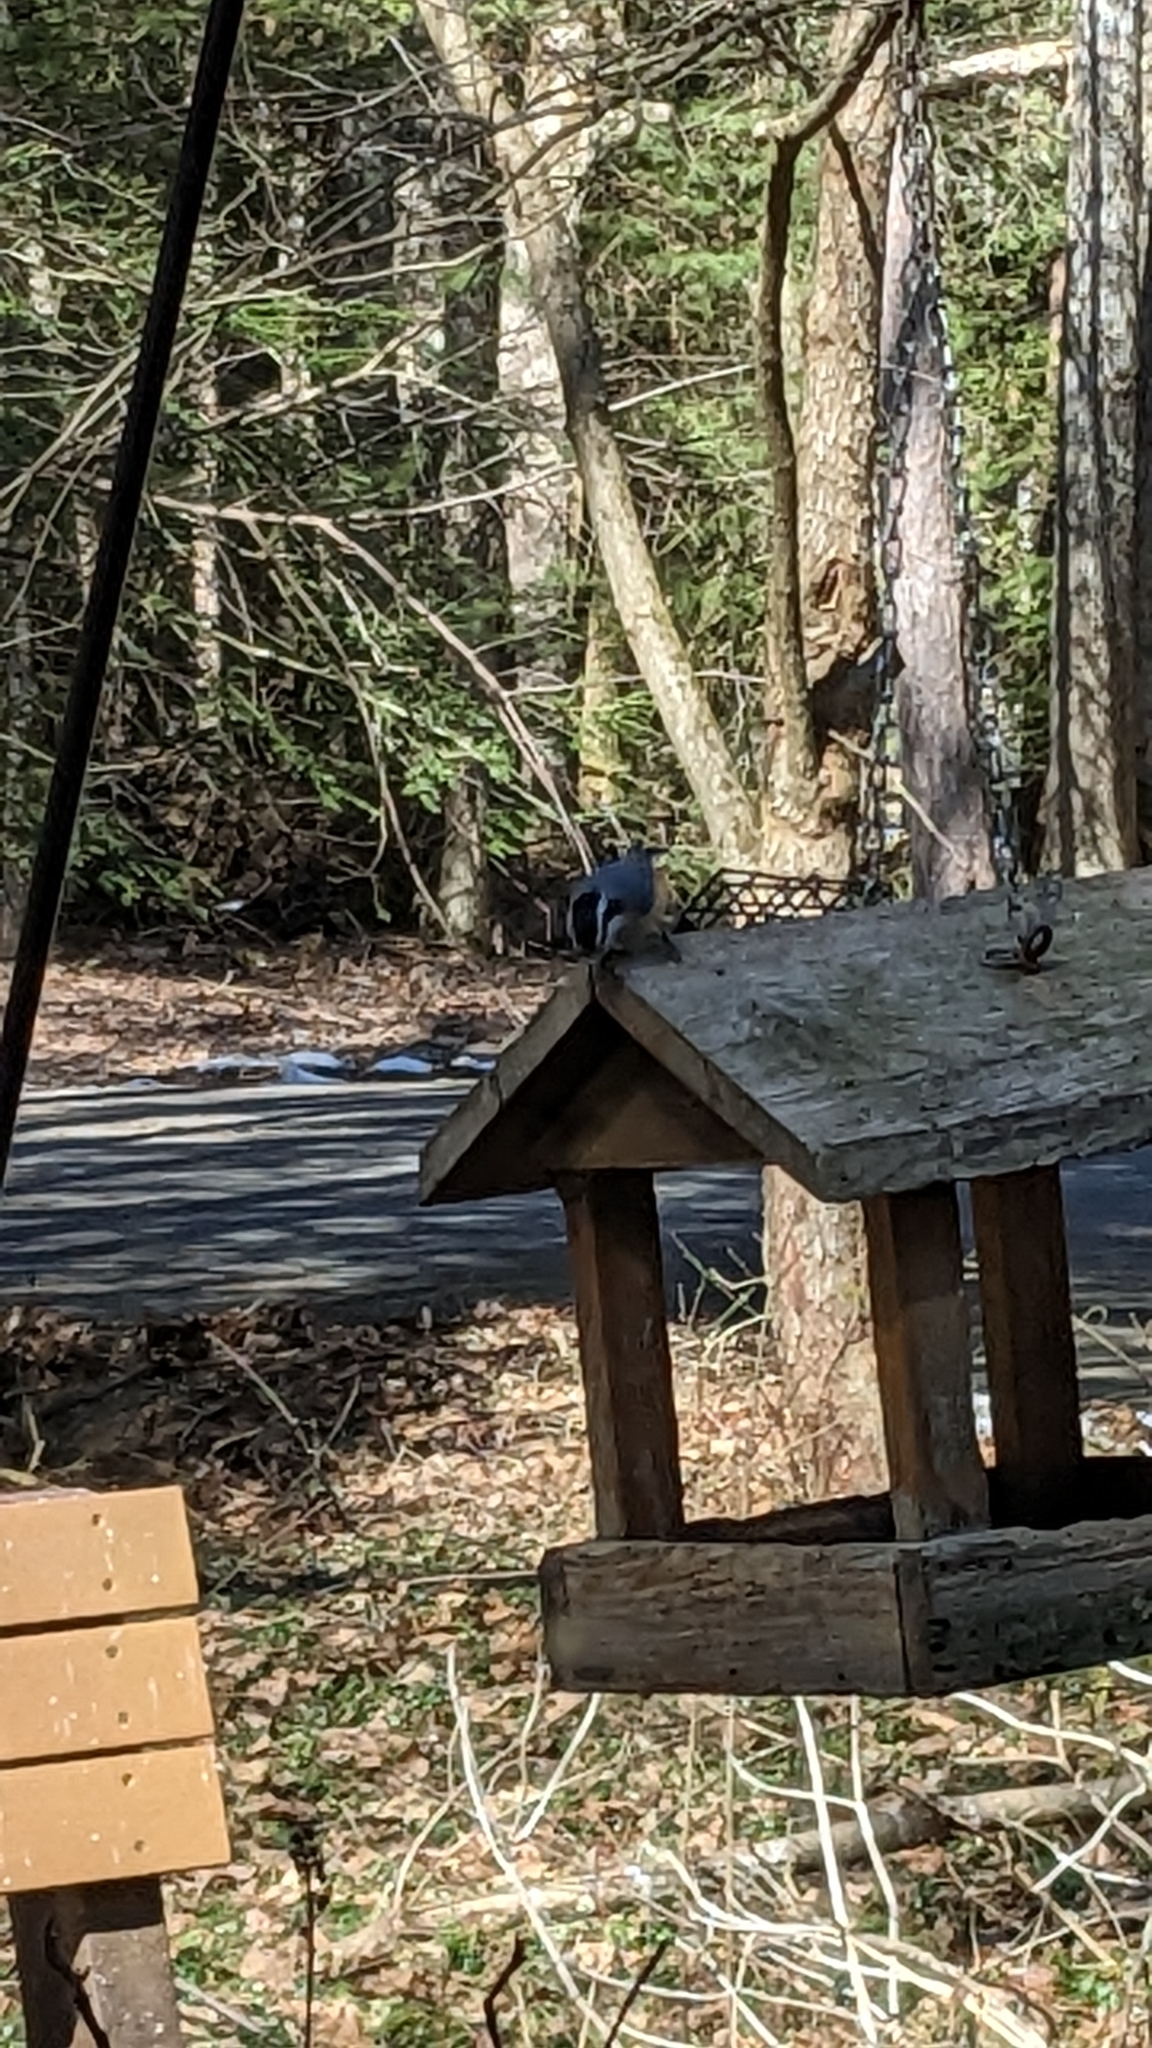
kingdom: Animalia
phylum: Chordata
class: Aves
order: Passeriformes
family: Sittidae
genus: Sitta
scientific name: Sitta canadensis
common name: Red-breasted nuthatch
